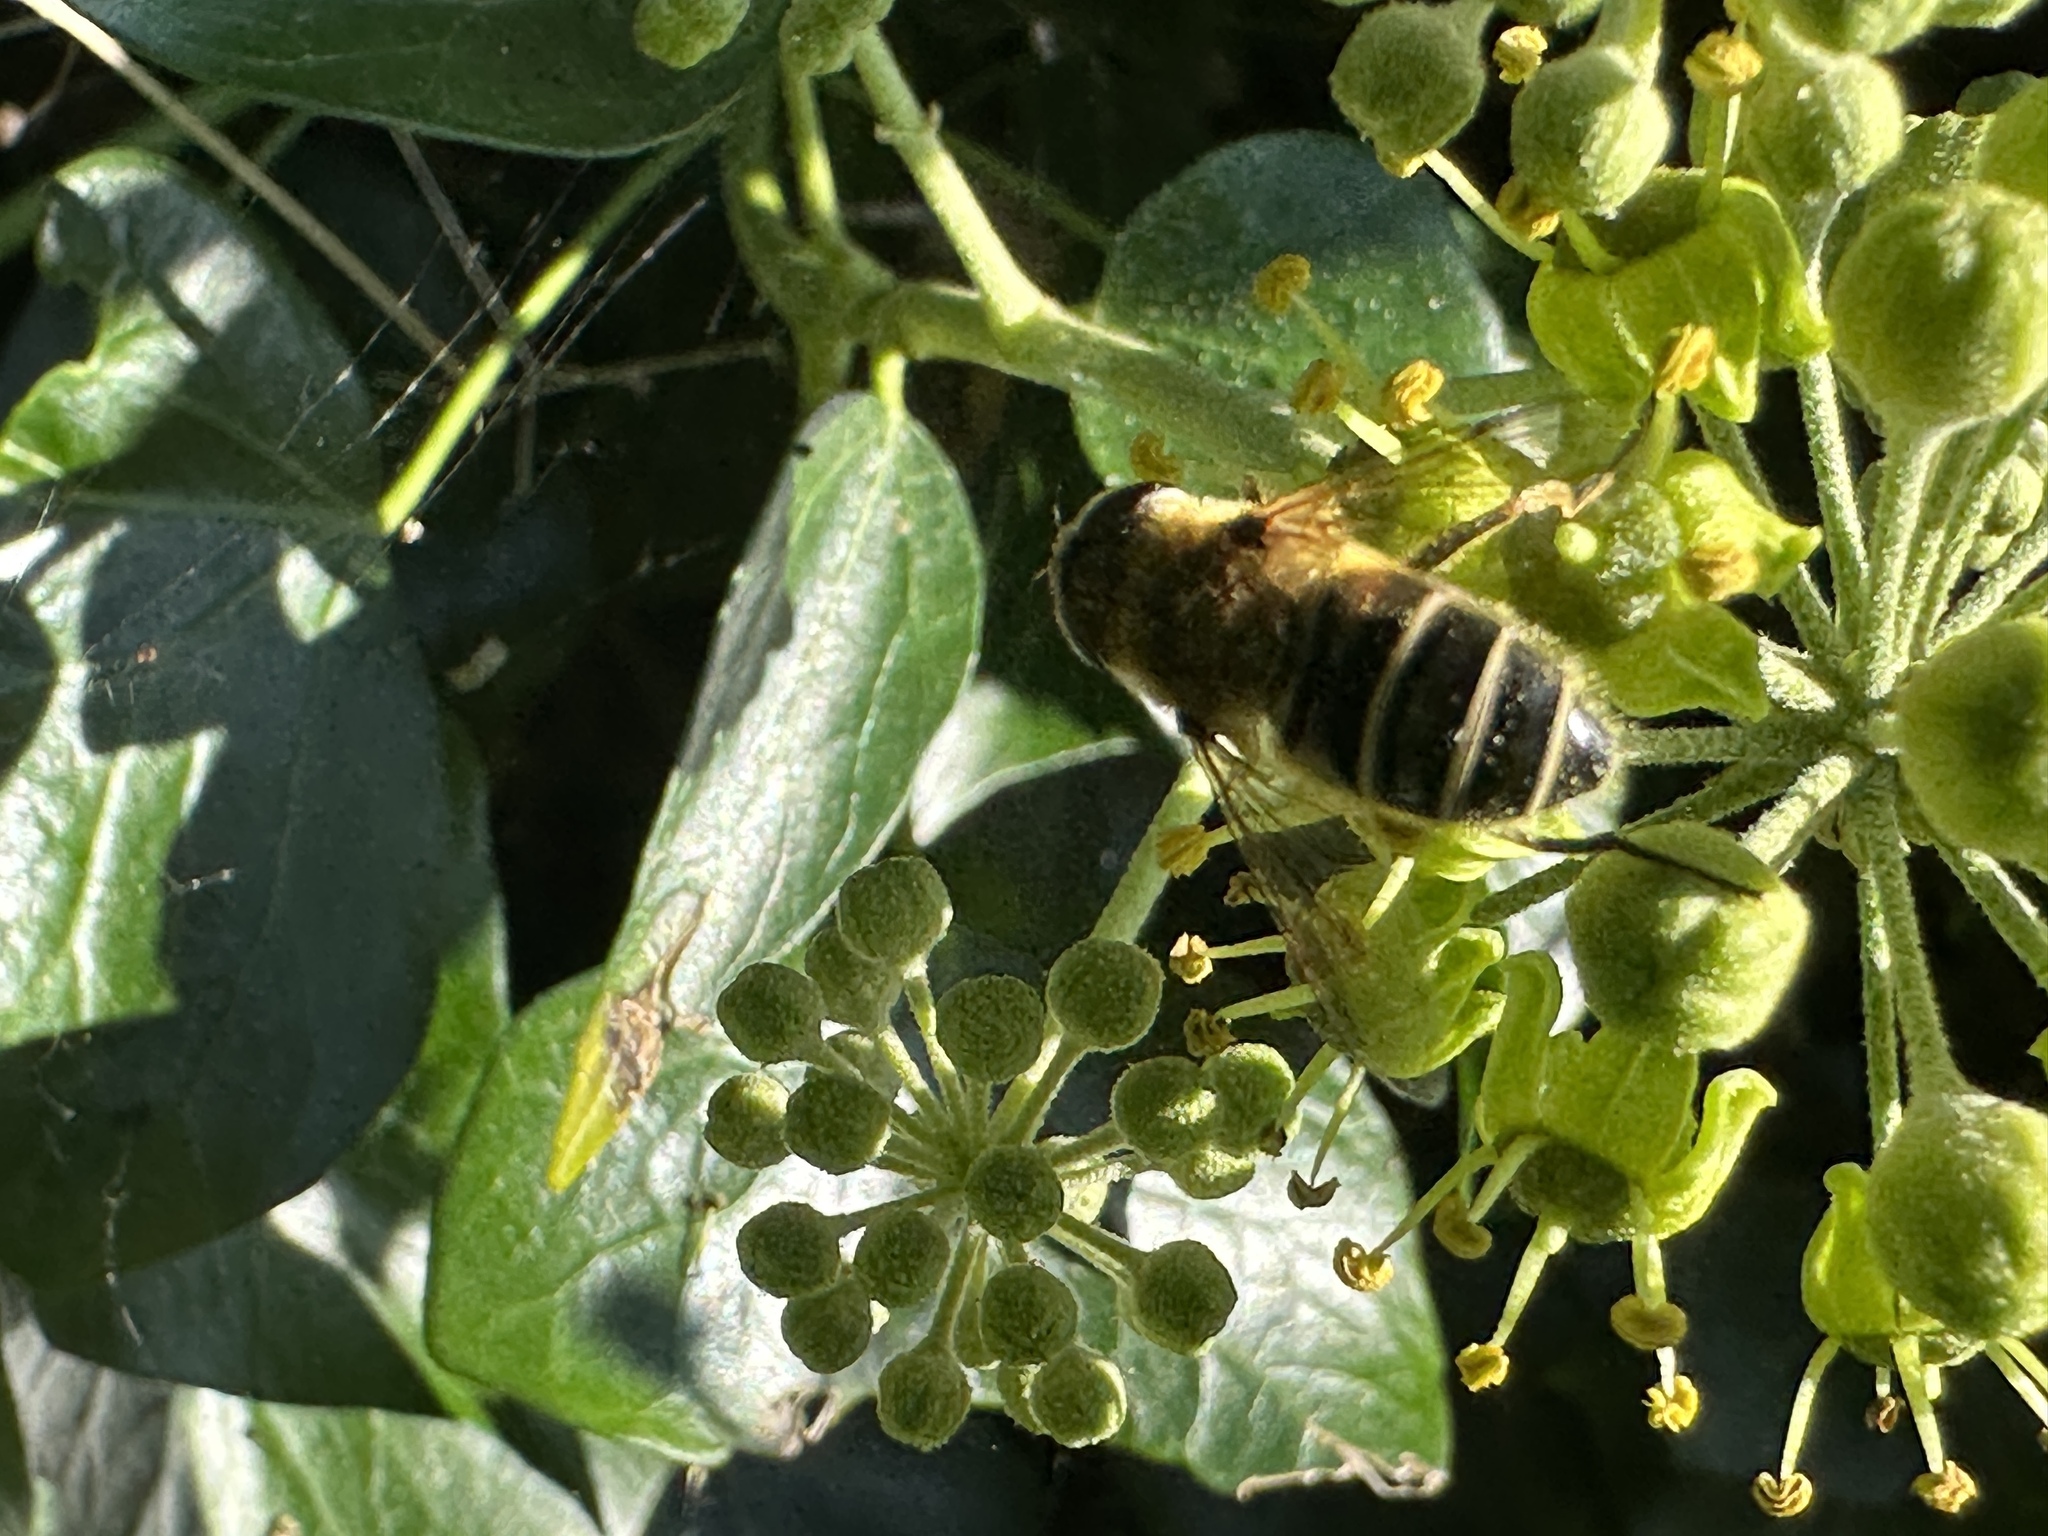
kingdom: Animalia
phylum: Arthropoda
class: Insecta
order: Diptera
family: Syrphidae
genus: Eristalis
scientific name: Eristalis
